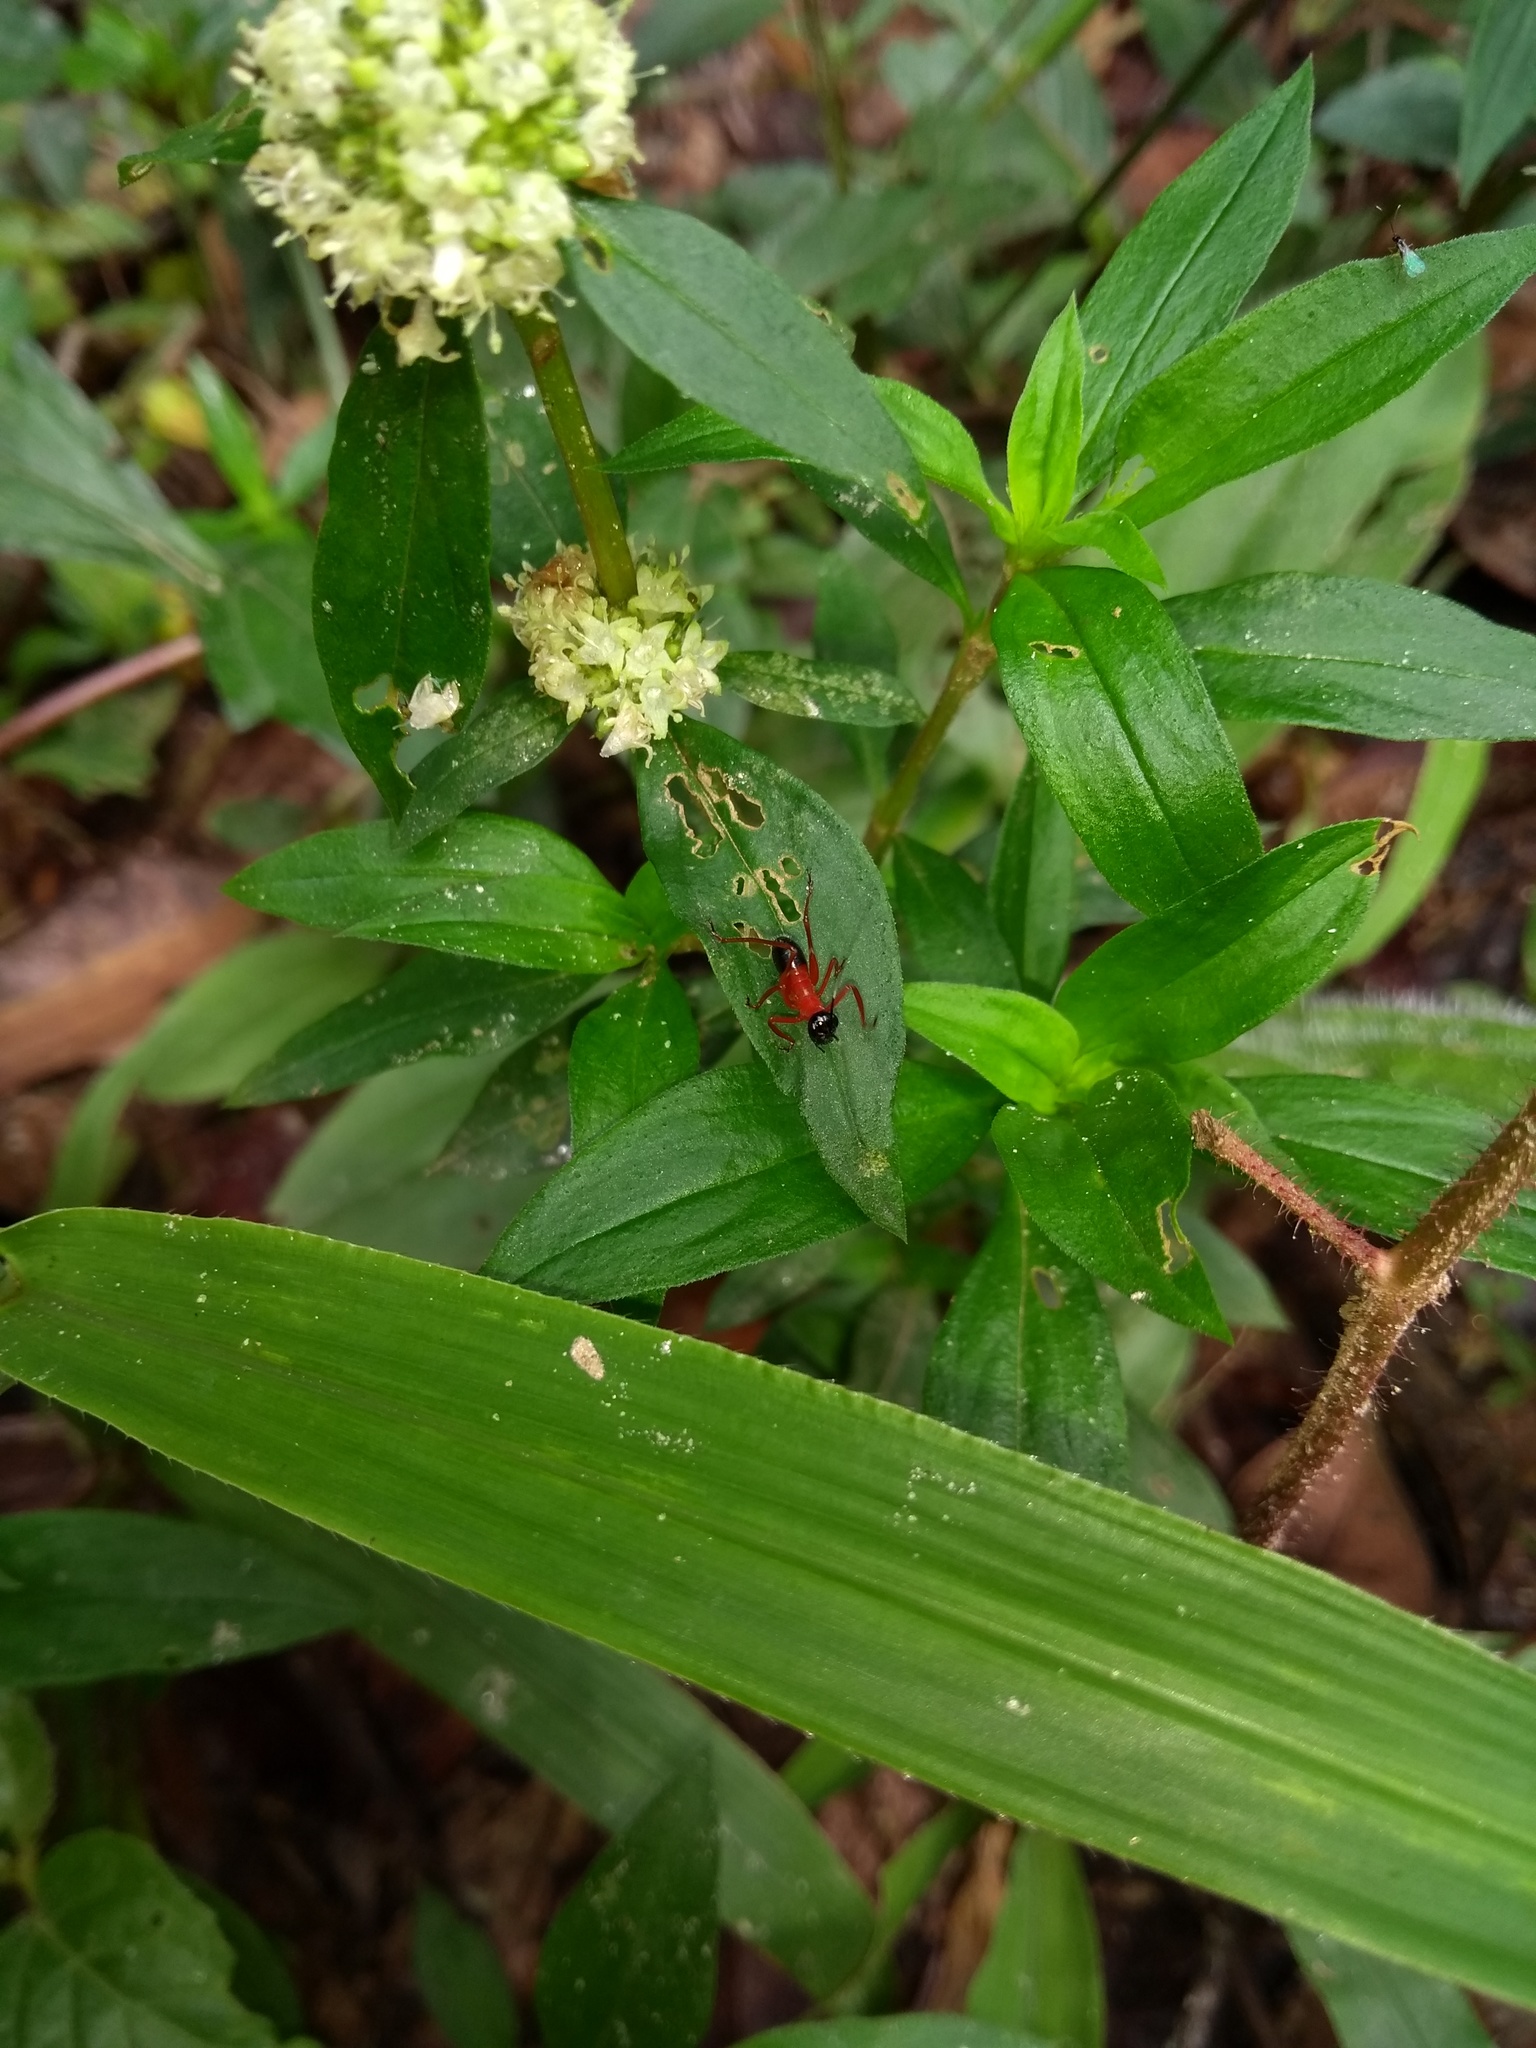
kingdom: Animalia
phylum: Arthropoda
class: Insecta
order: Orthoptera
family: Tettigoniidae
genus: Scaphura
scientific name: Scaphura nigra
